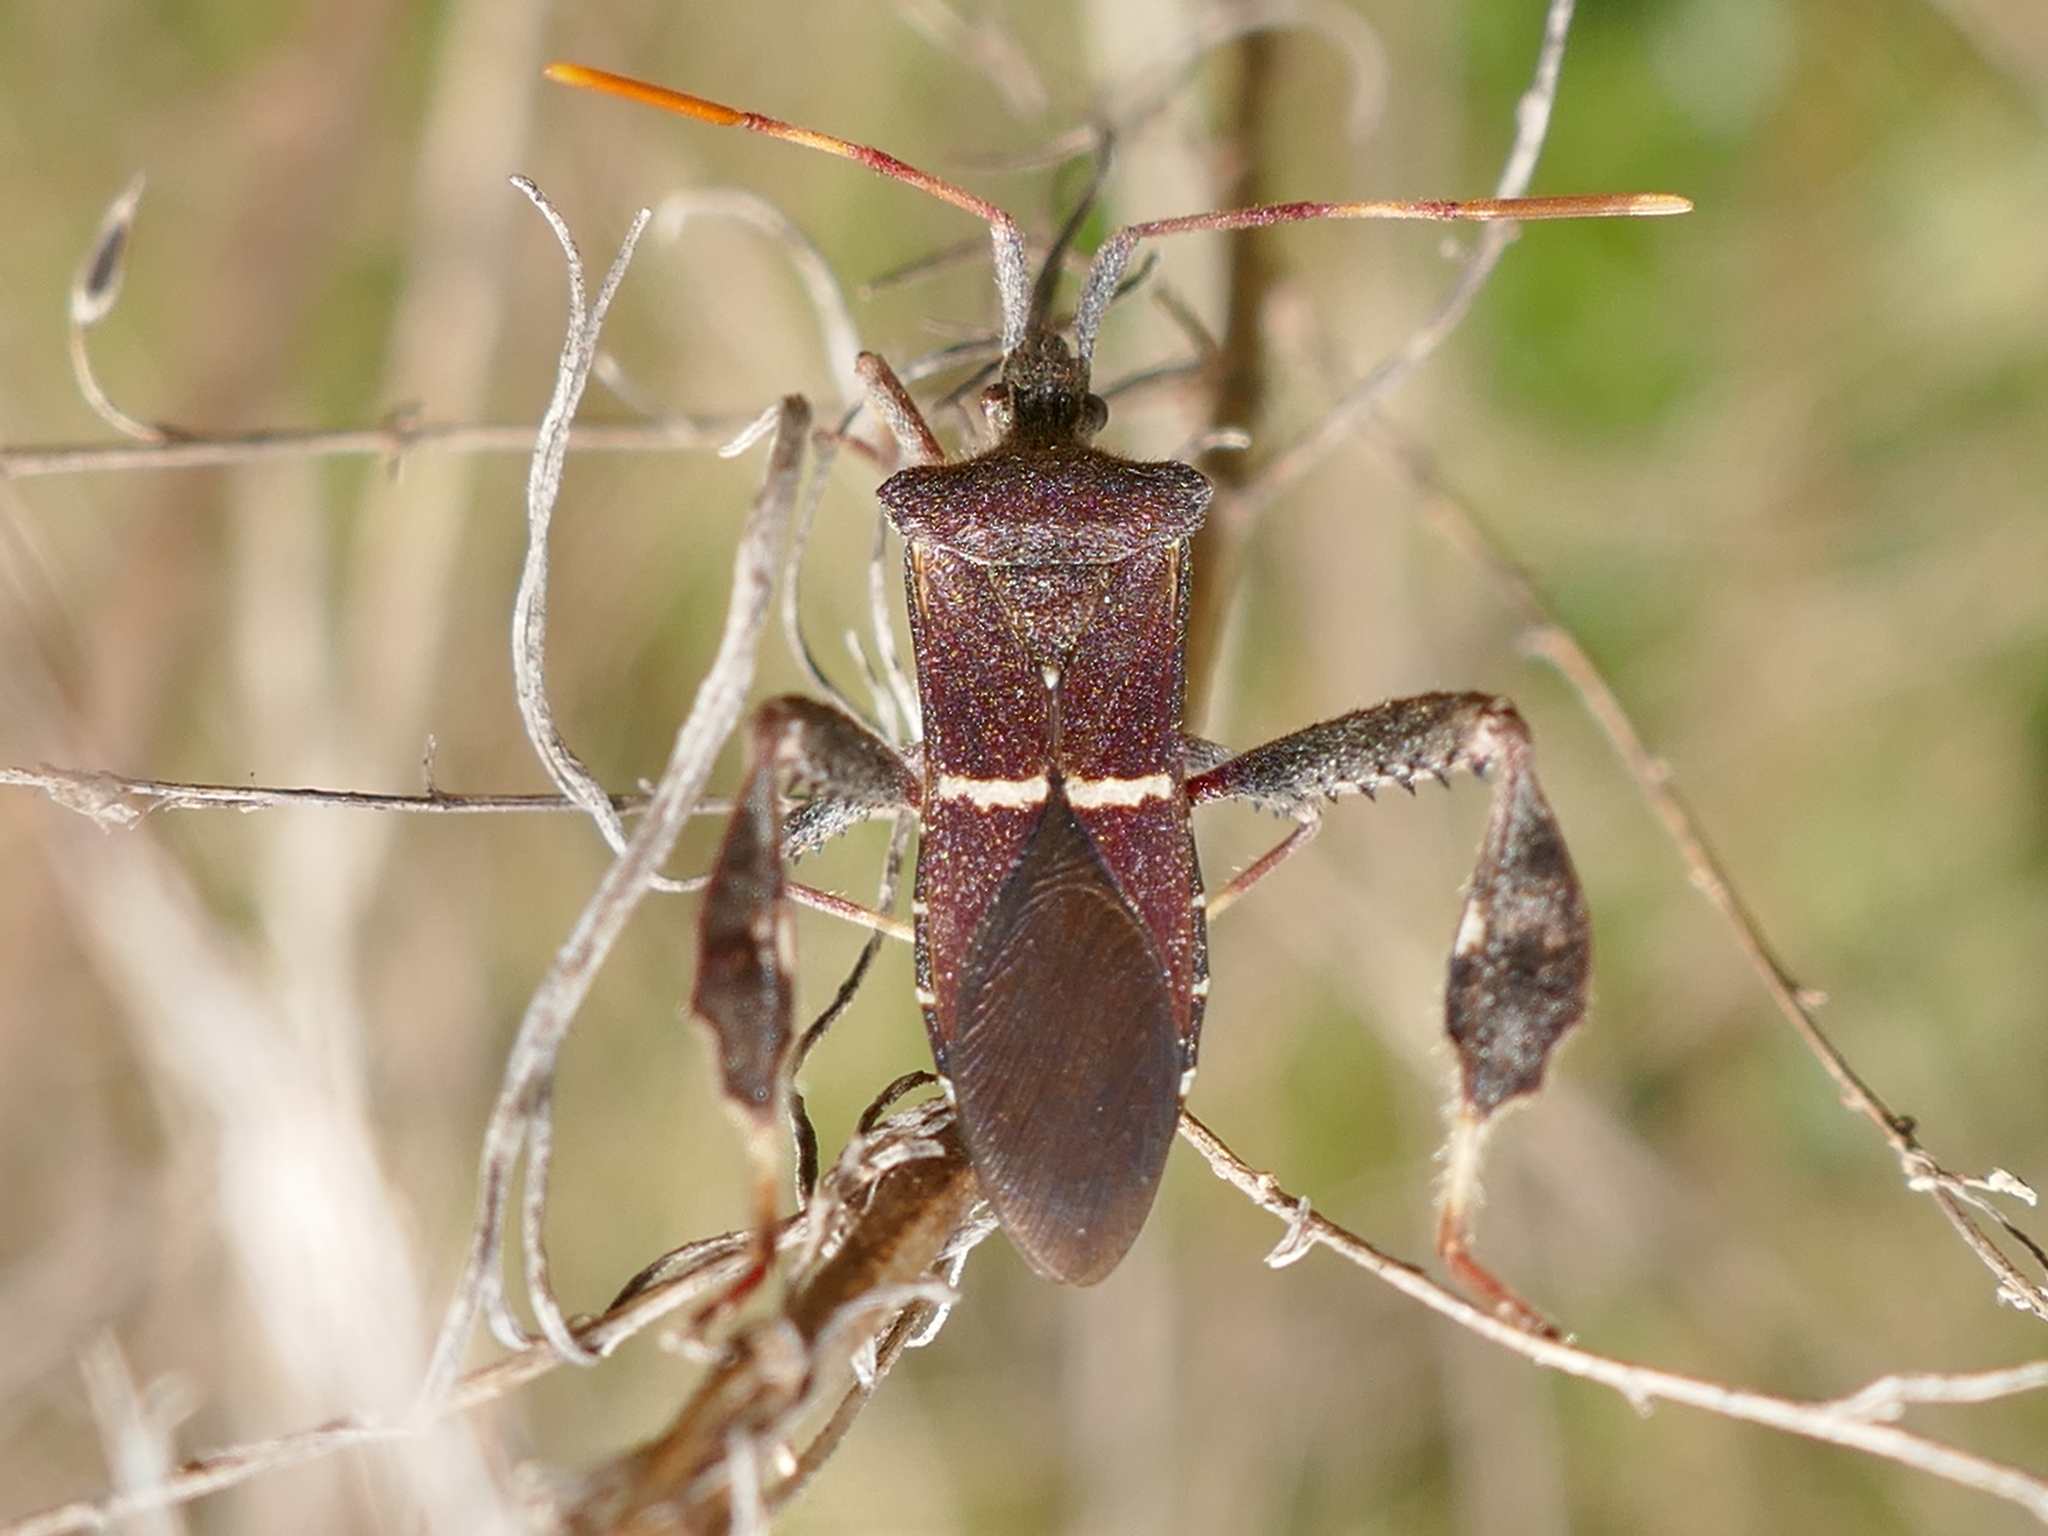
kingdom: Animalia
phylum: Arthropoda
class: Insecta
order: Hemiptera
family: Coreidae
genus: Leptoglossus
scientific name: Leptoglossus phyllopus
